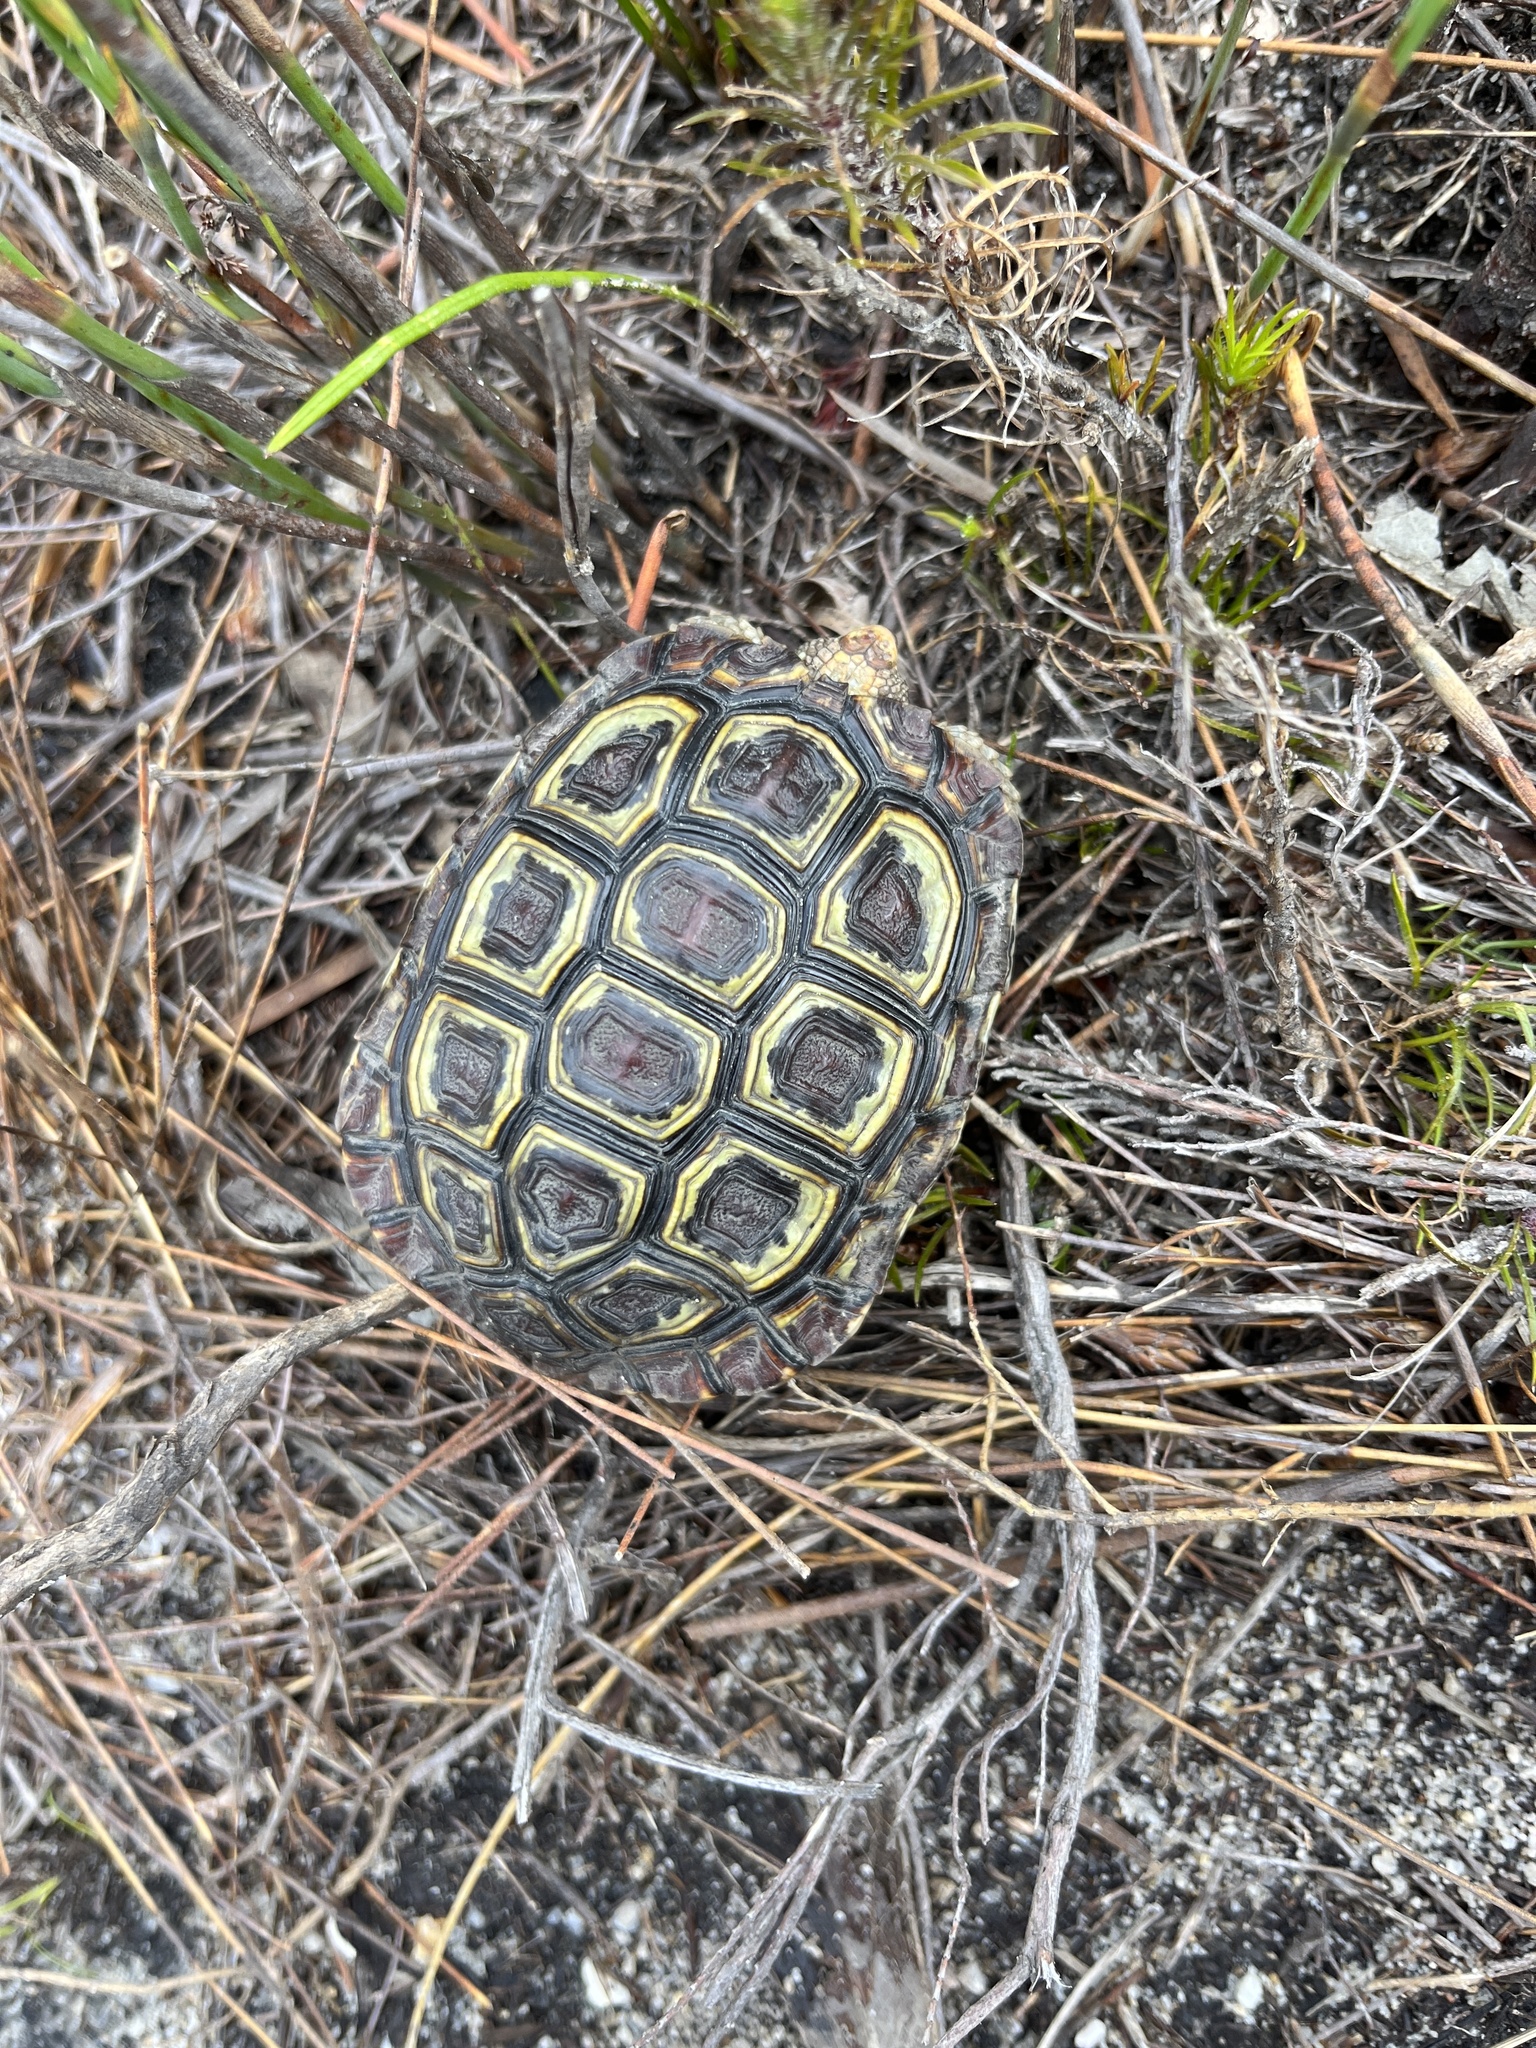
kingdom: Animalia
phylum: Chordata
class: Testudines
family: Testudinidae
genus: Homopus
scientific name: Homopus areolatus
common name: Parrot-beaked tortoise
